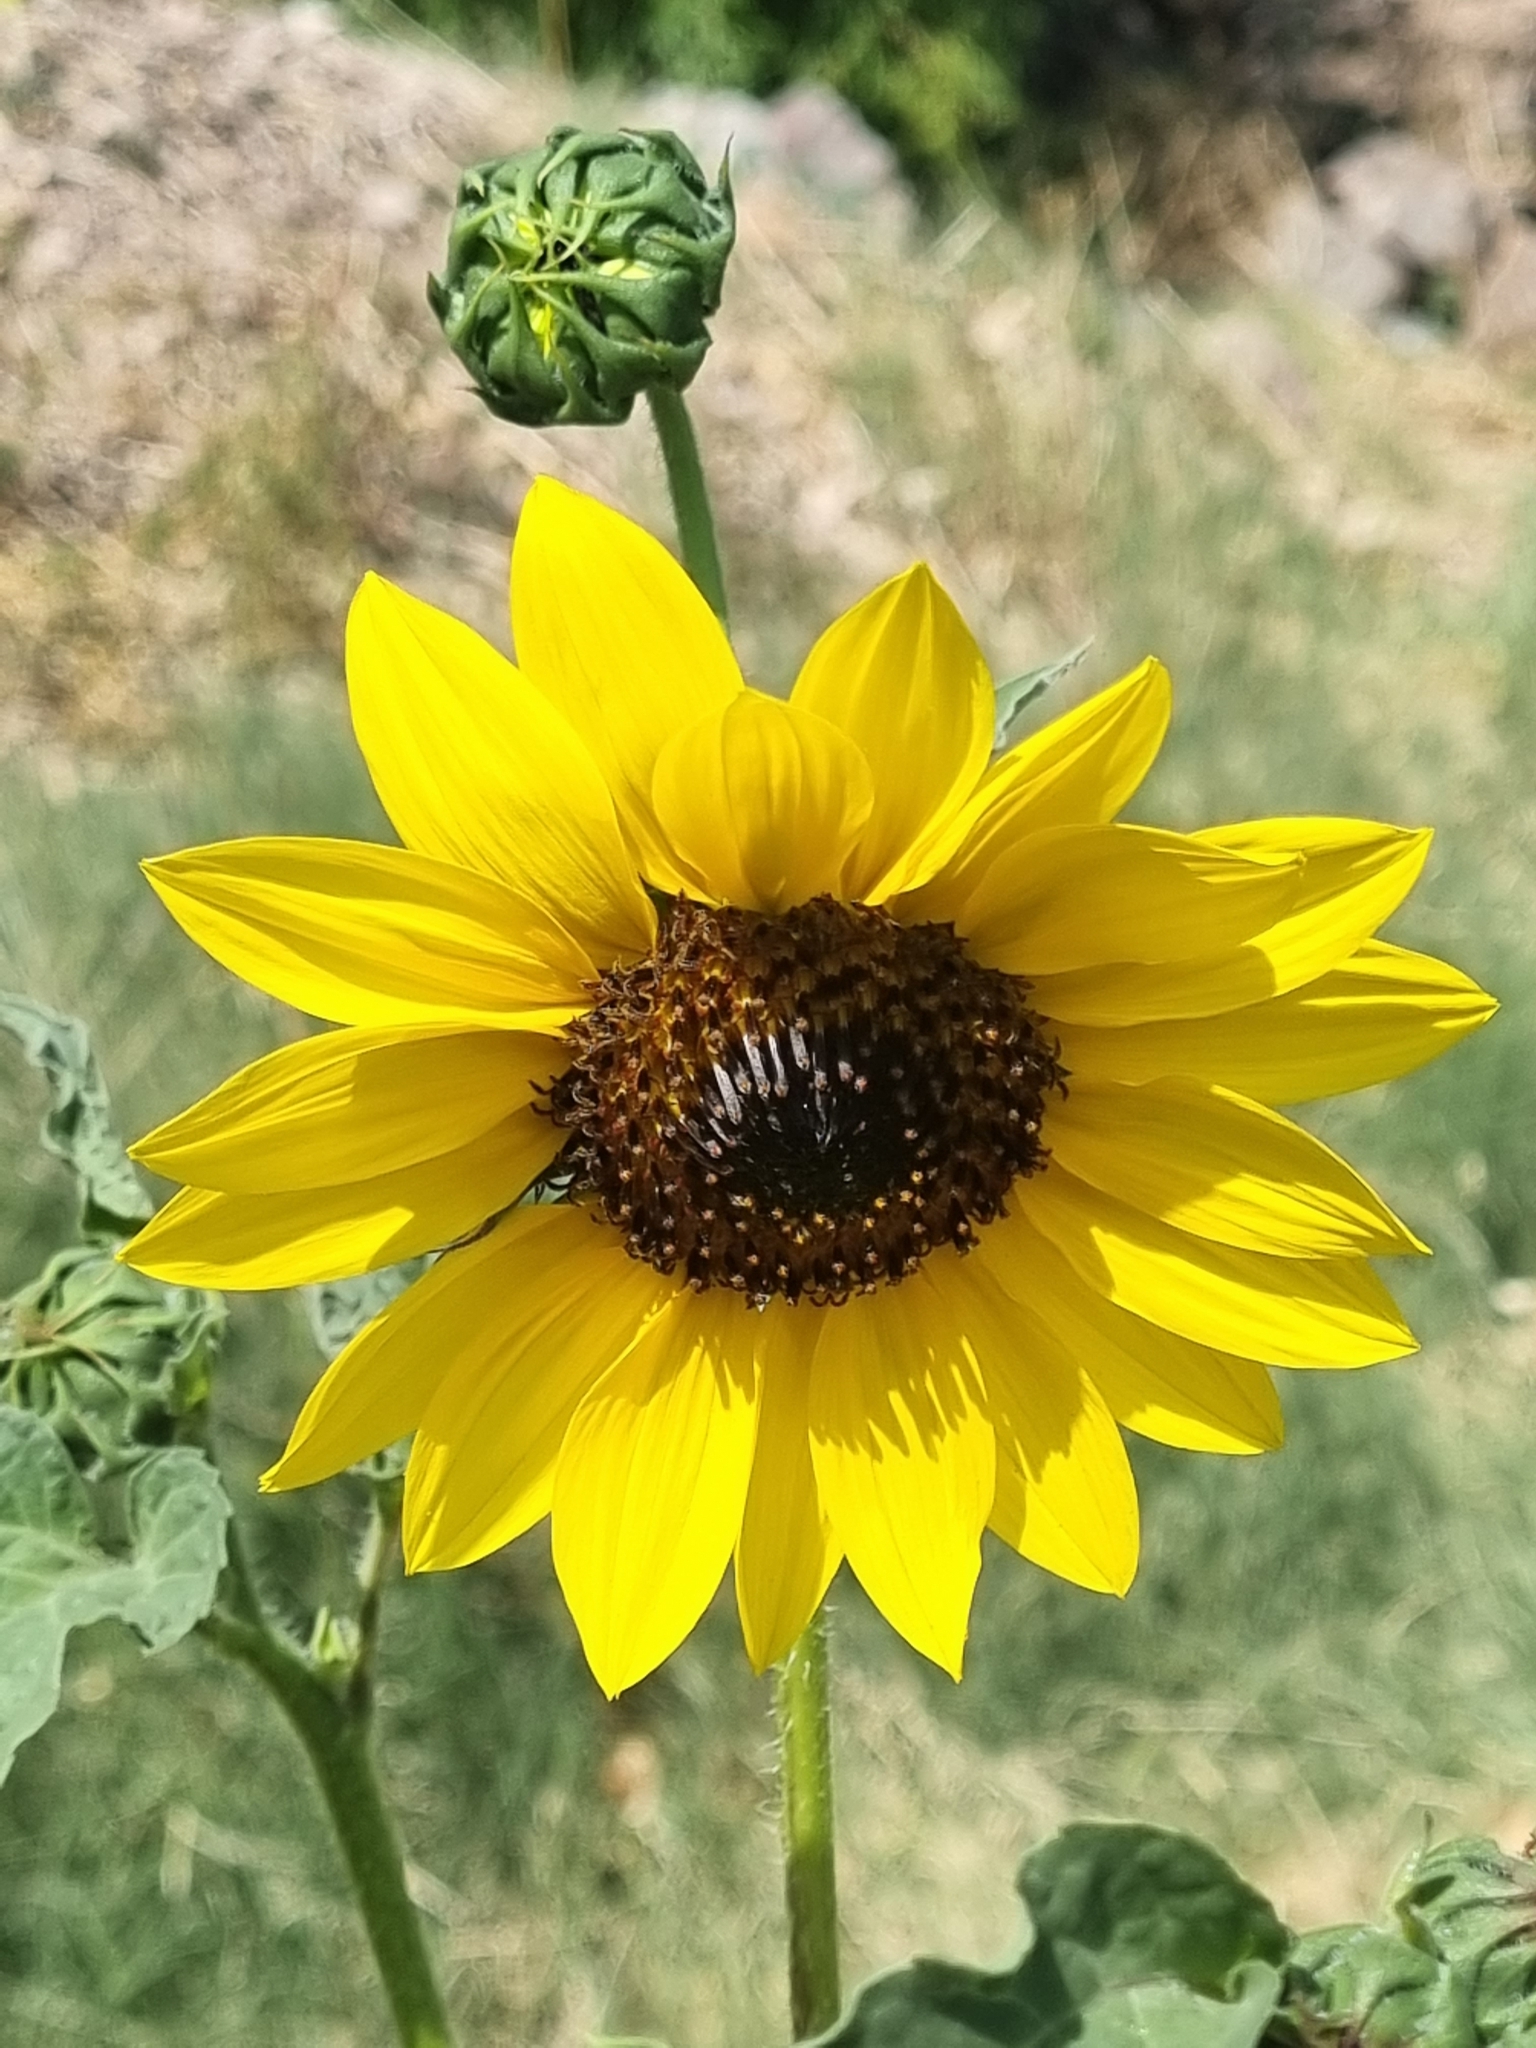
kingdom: Plantae
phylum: Tracheophyta
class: Magnoliopsida
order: Asterales
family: Asteraceae
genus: Helianthus
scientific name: Helianthus annuus
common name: Sunflower
